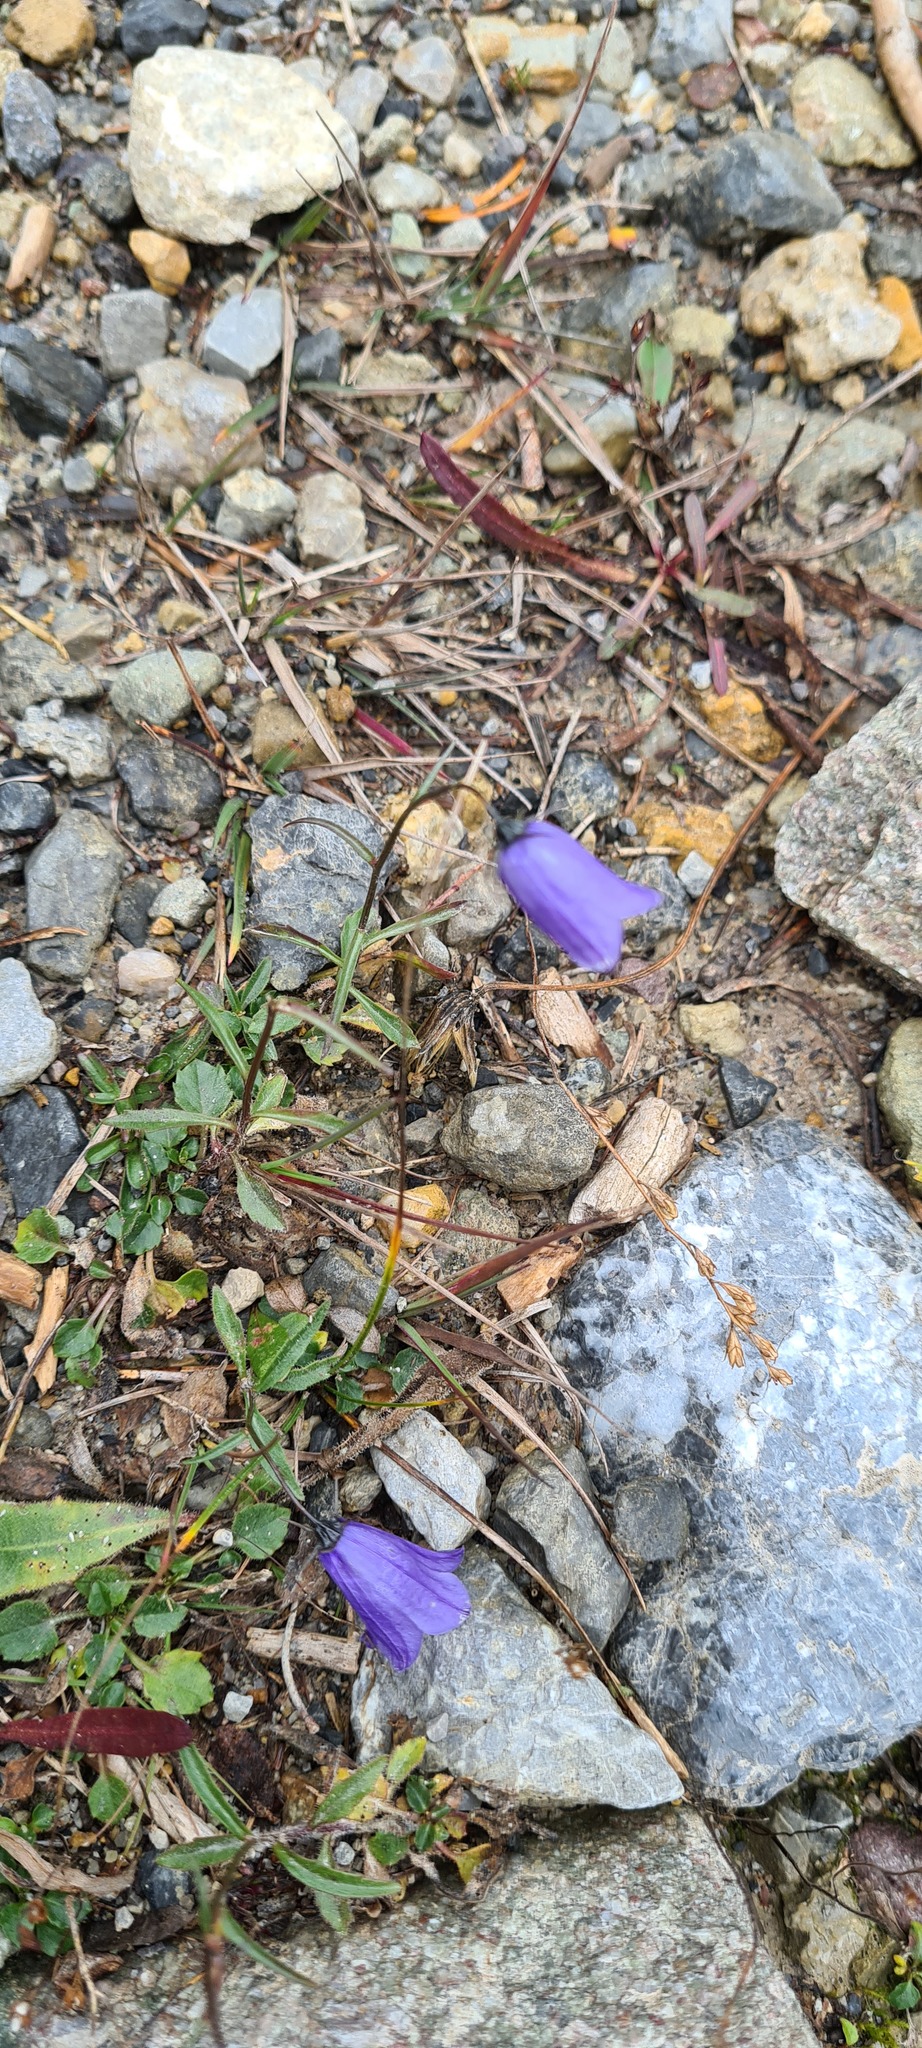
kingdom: Plantae
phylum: Tracheophyta
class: Magnoliopsida
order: Asterales
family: Campanulaceae
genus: Campanula
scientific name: Campanula cochleariifolia
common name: Fairies'-thimbles
